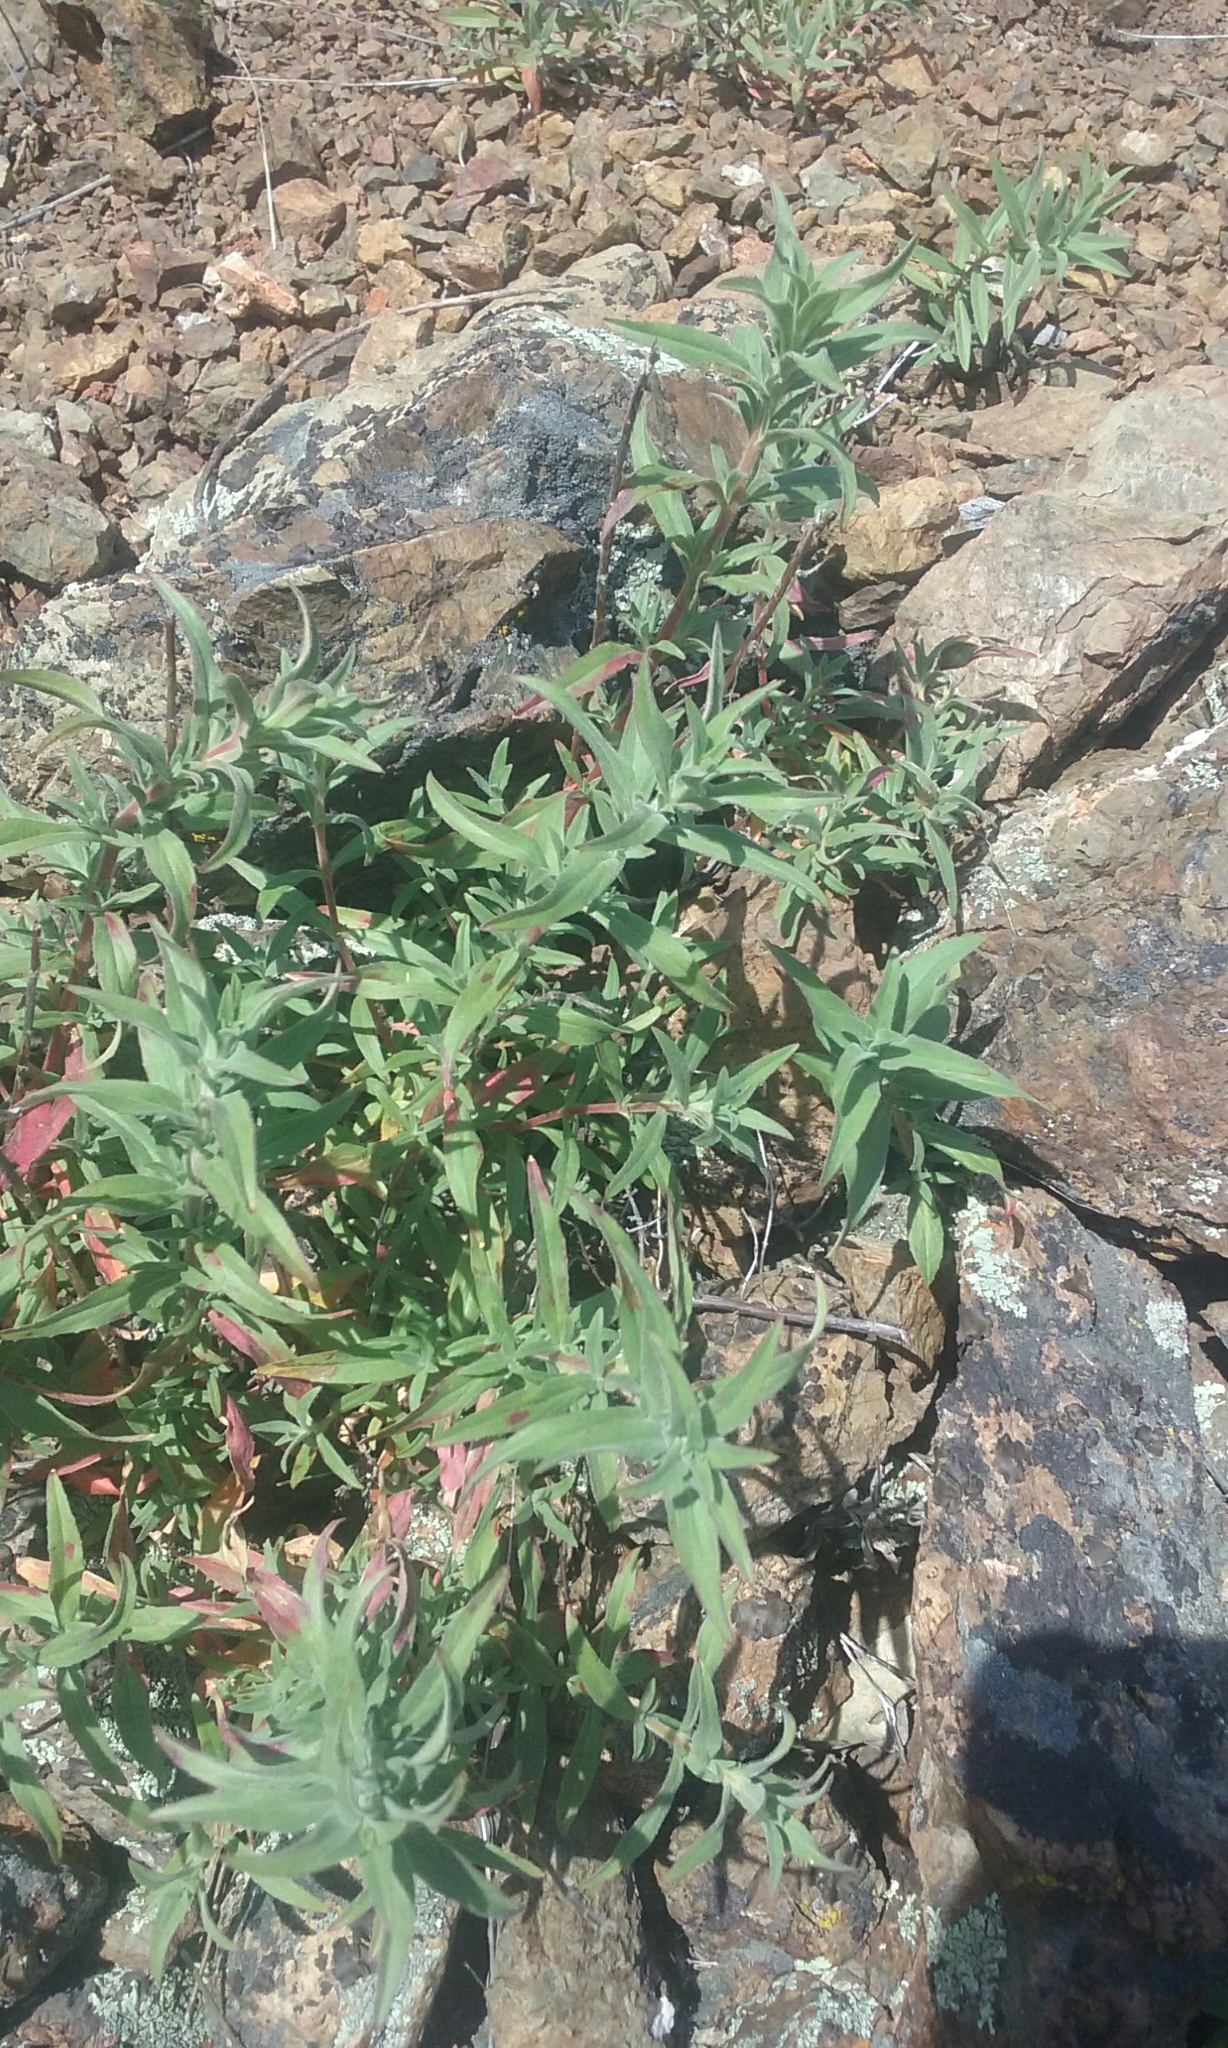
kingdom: Plantae
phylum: Tracheophyta
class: Magnoliopsida
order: Myrtales
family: Onagraceae
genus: Epilobium
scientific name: Epilobium canum
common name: California-fuchsia
